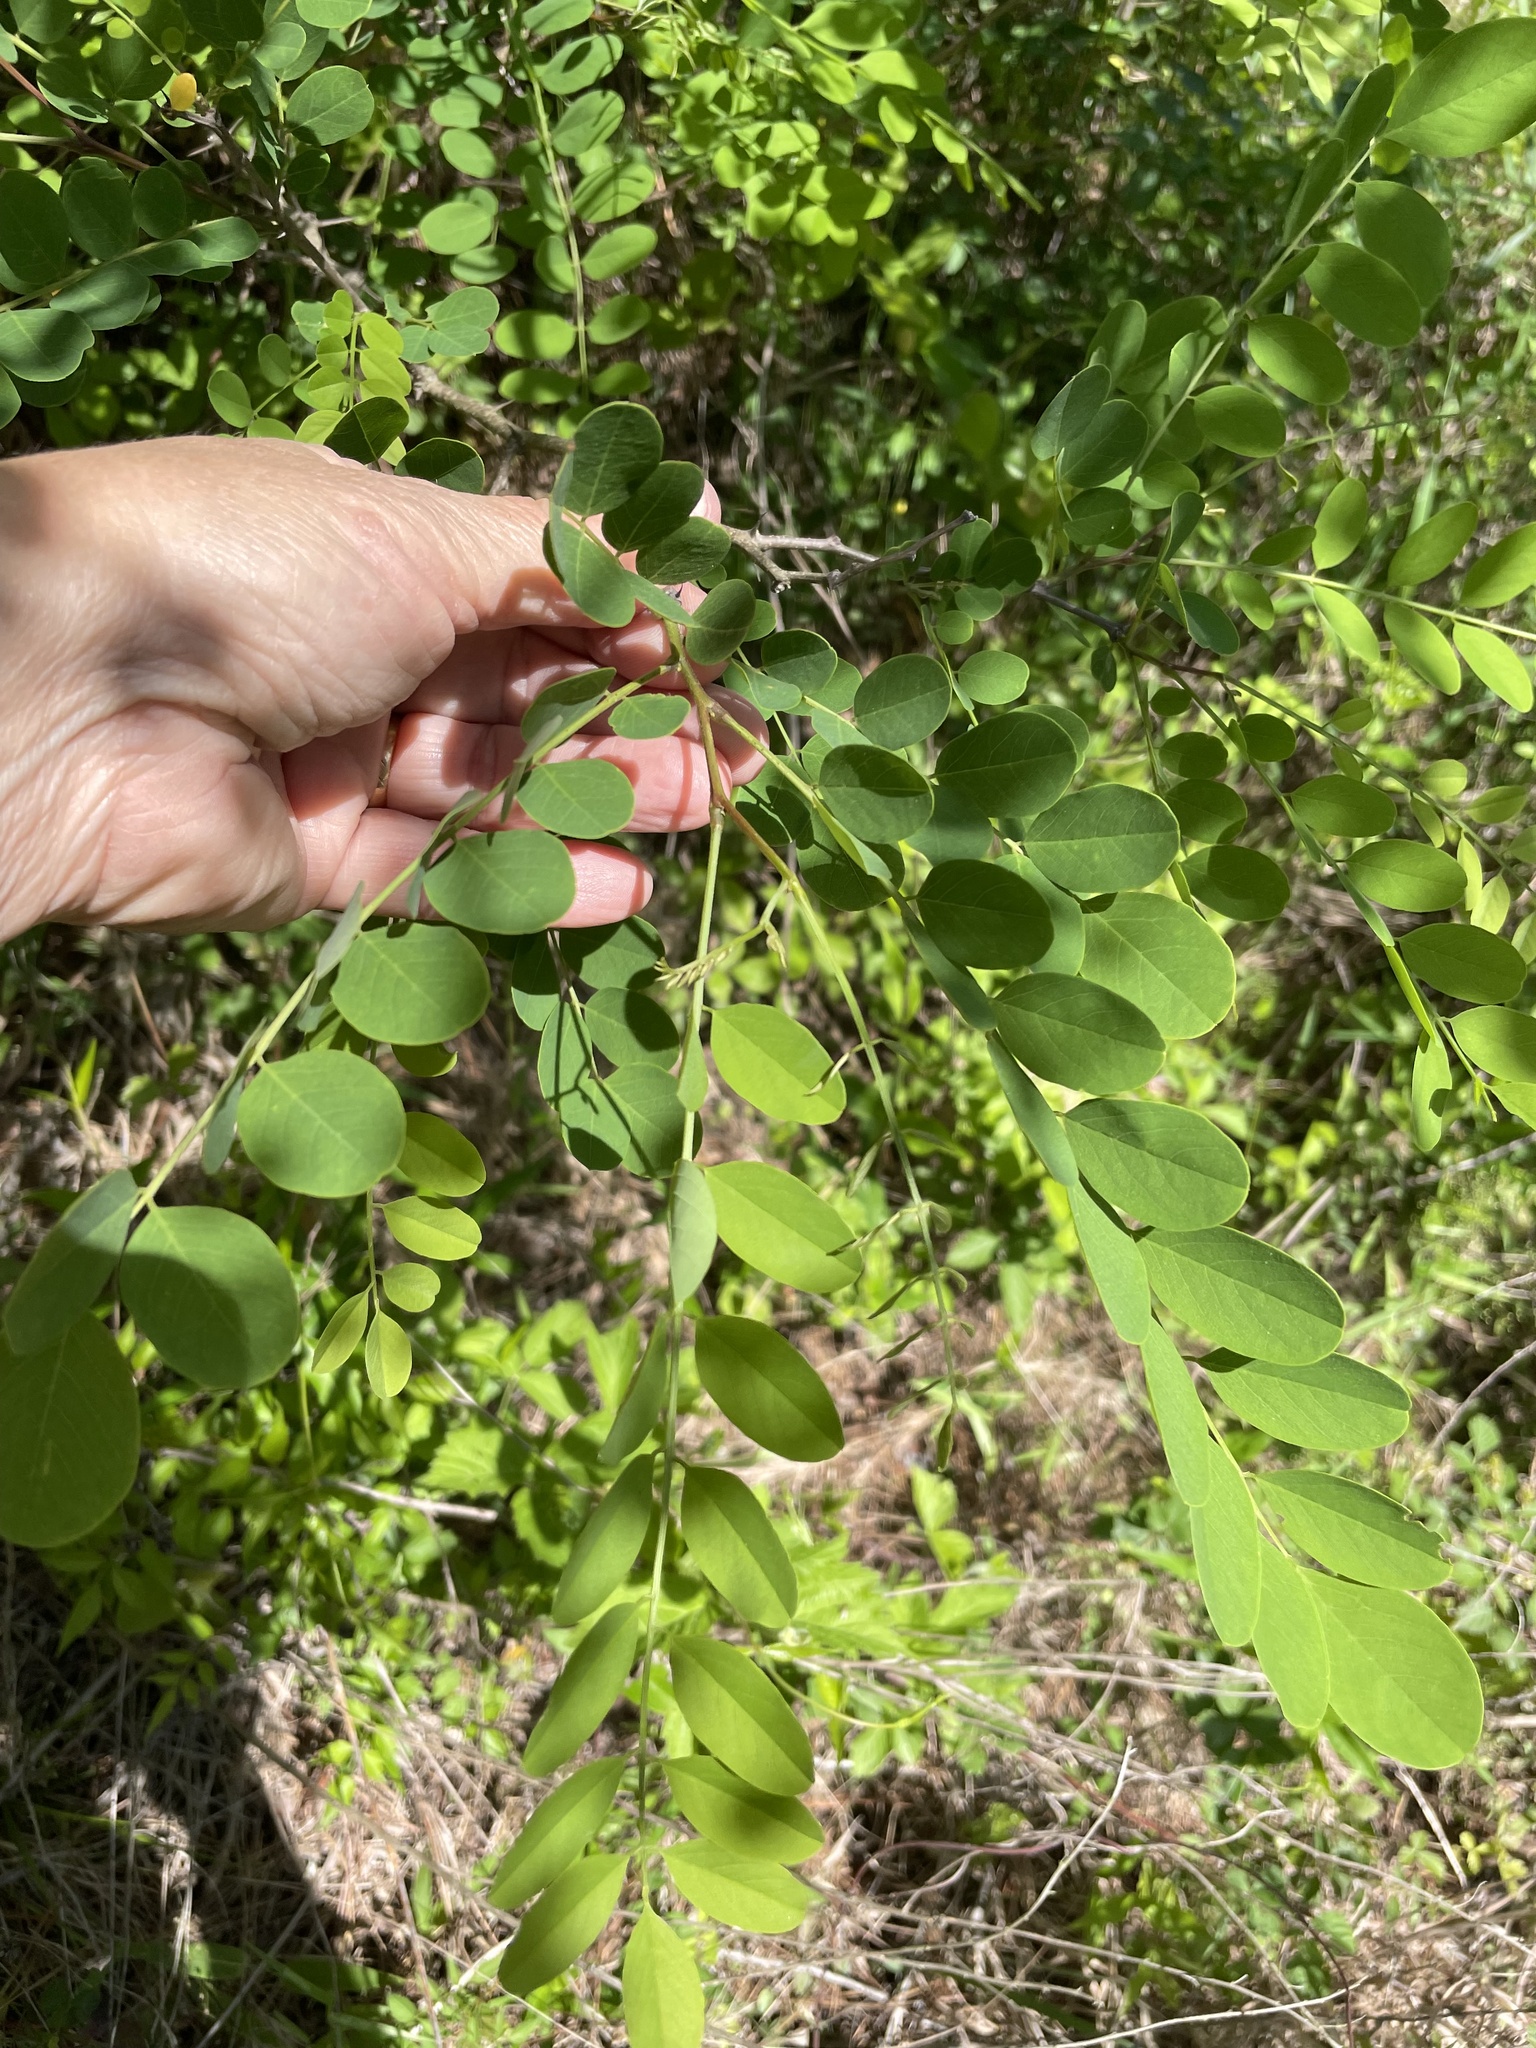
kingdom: Plantae
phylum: Tracheophyta
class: Magnoliopsida
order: Fabales
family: Fabaceae
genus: Robinia
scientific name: Robinia pseudoacacia
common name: Black locust
